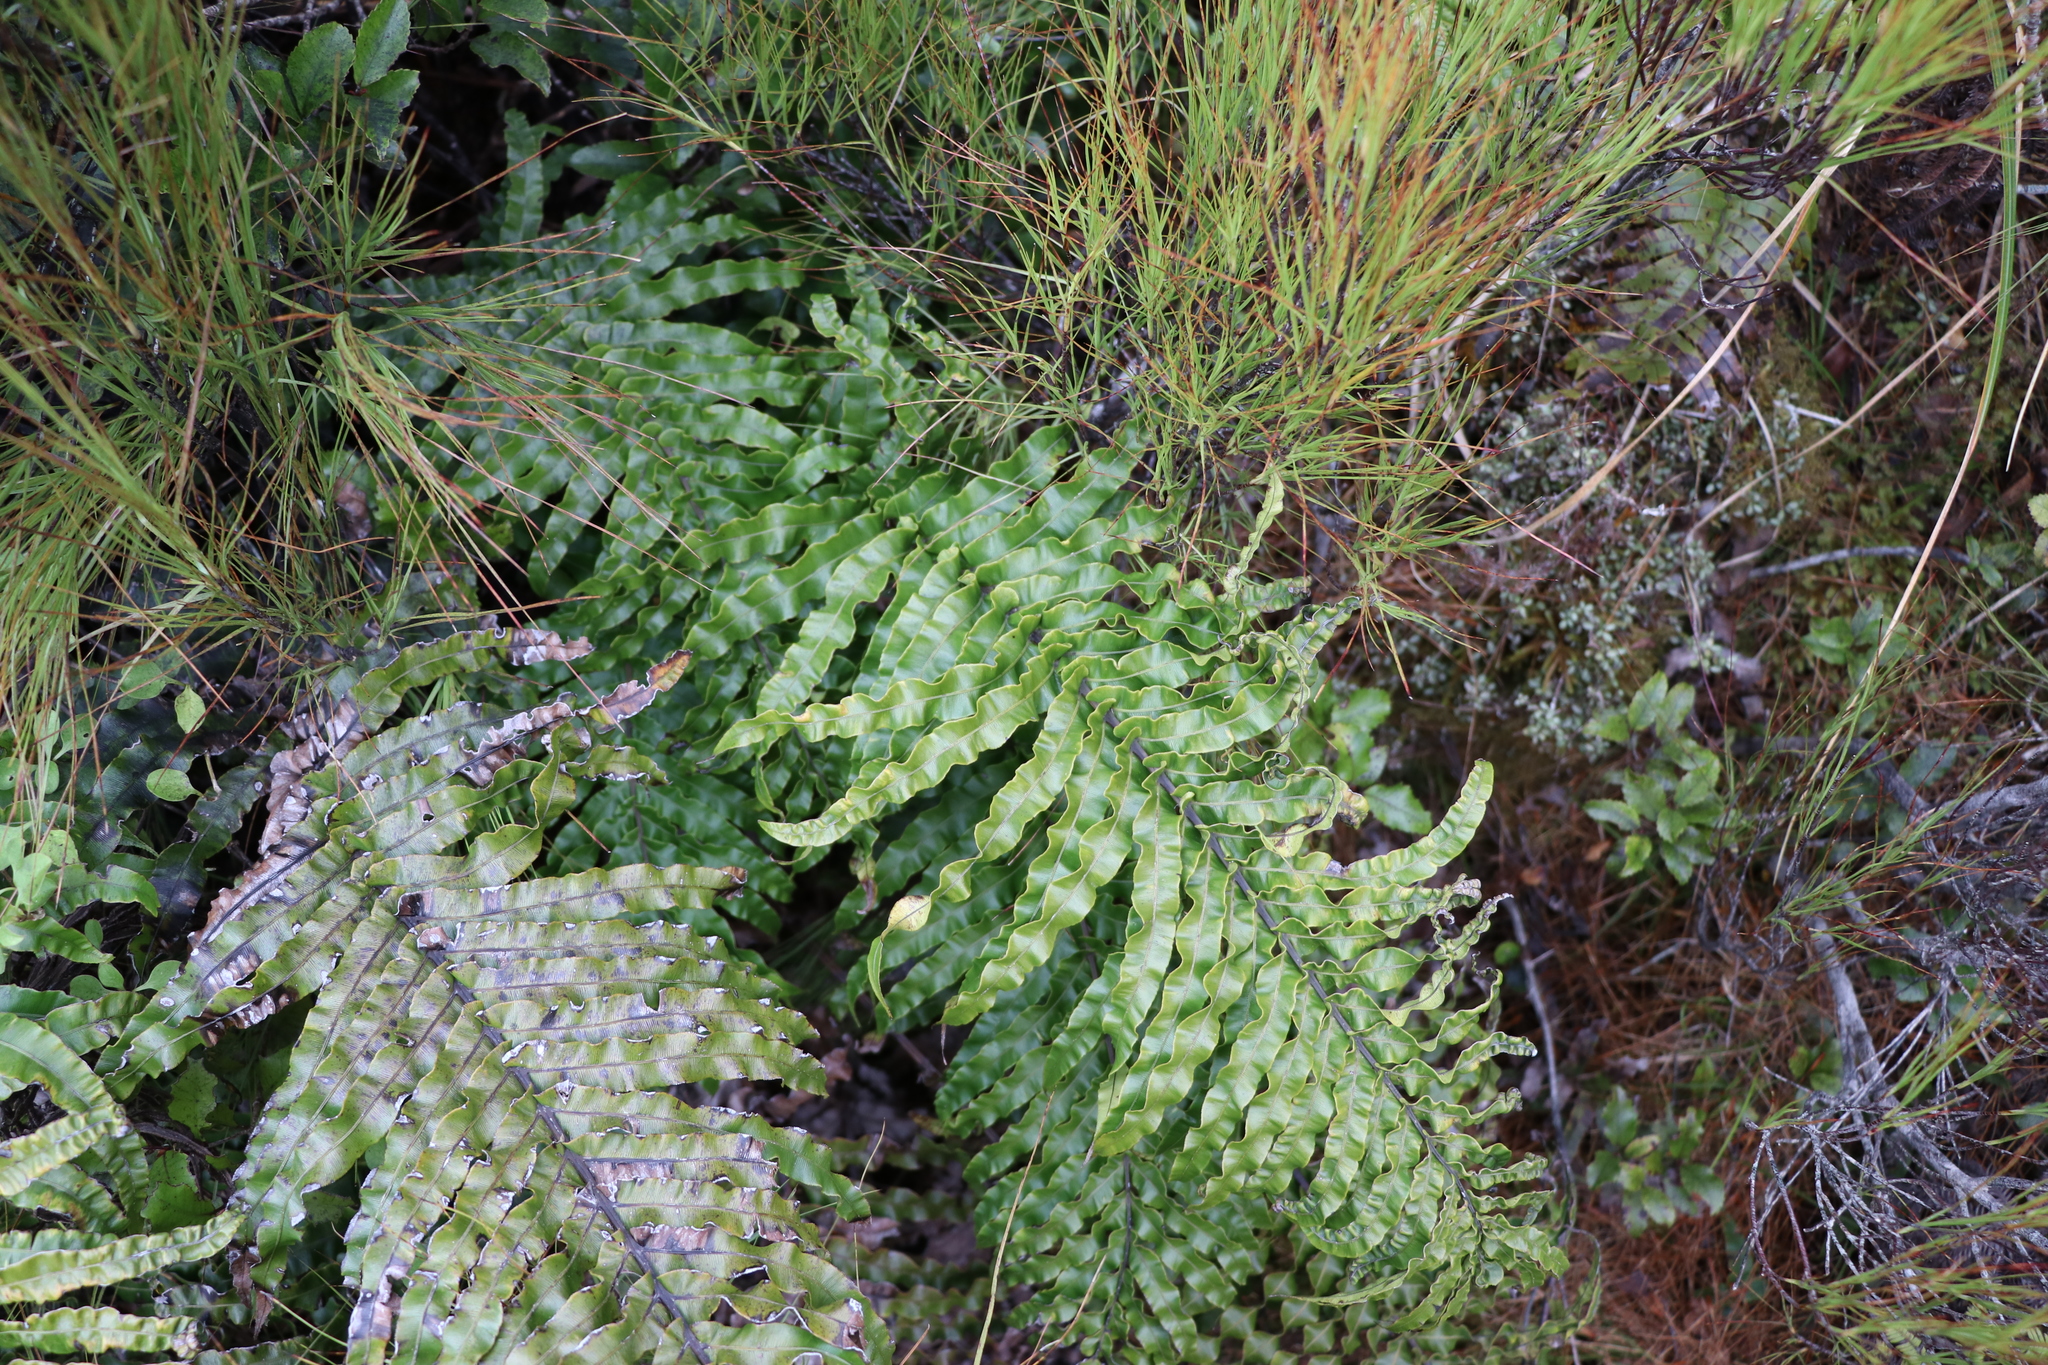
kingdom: Plantae
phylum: Tracheophyta
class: Polypodiopsida
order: Polypodiales
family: Blechnaceae
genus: Parablechnum
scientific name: Parablechnum novae-zelandiae
